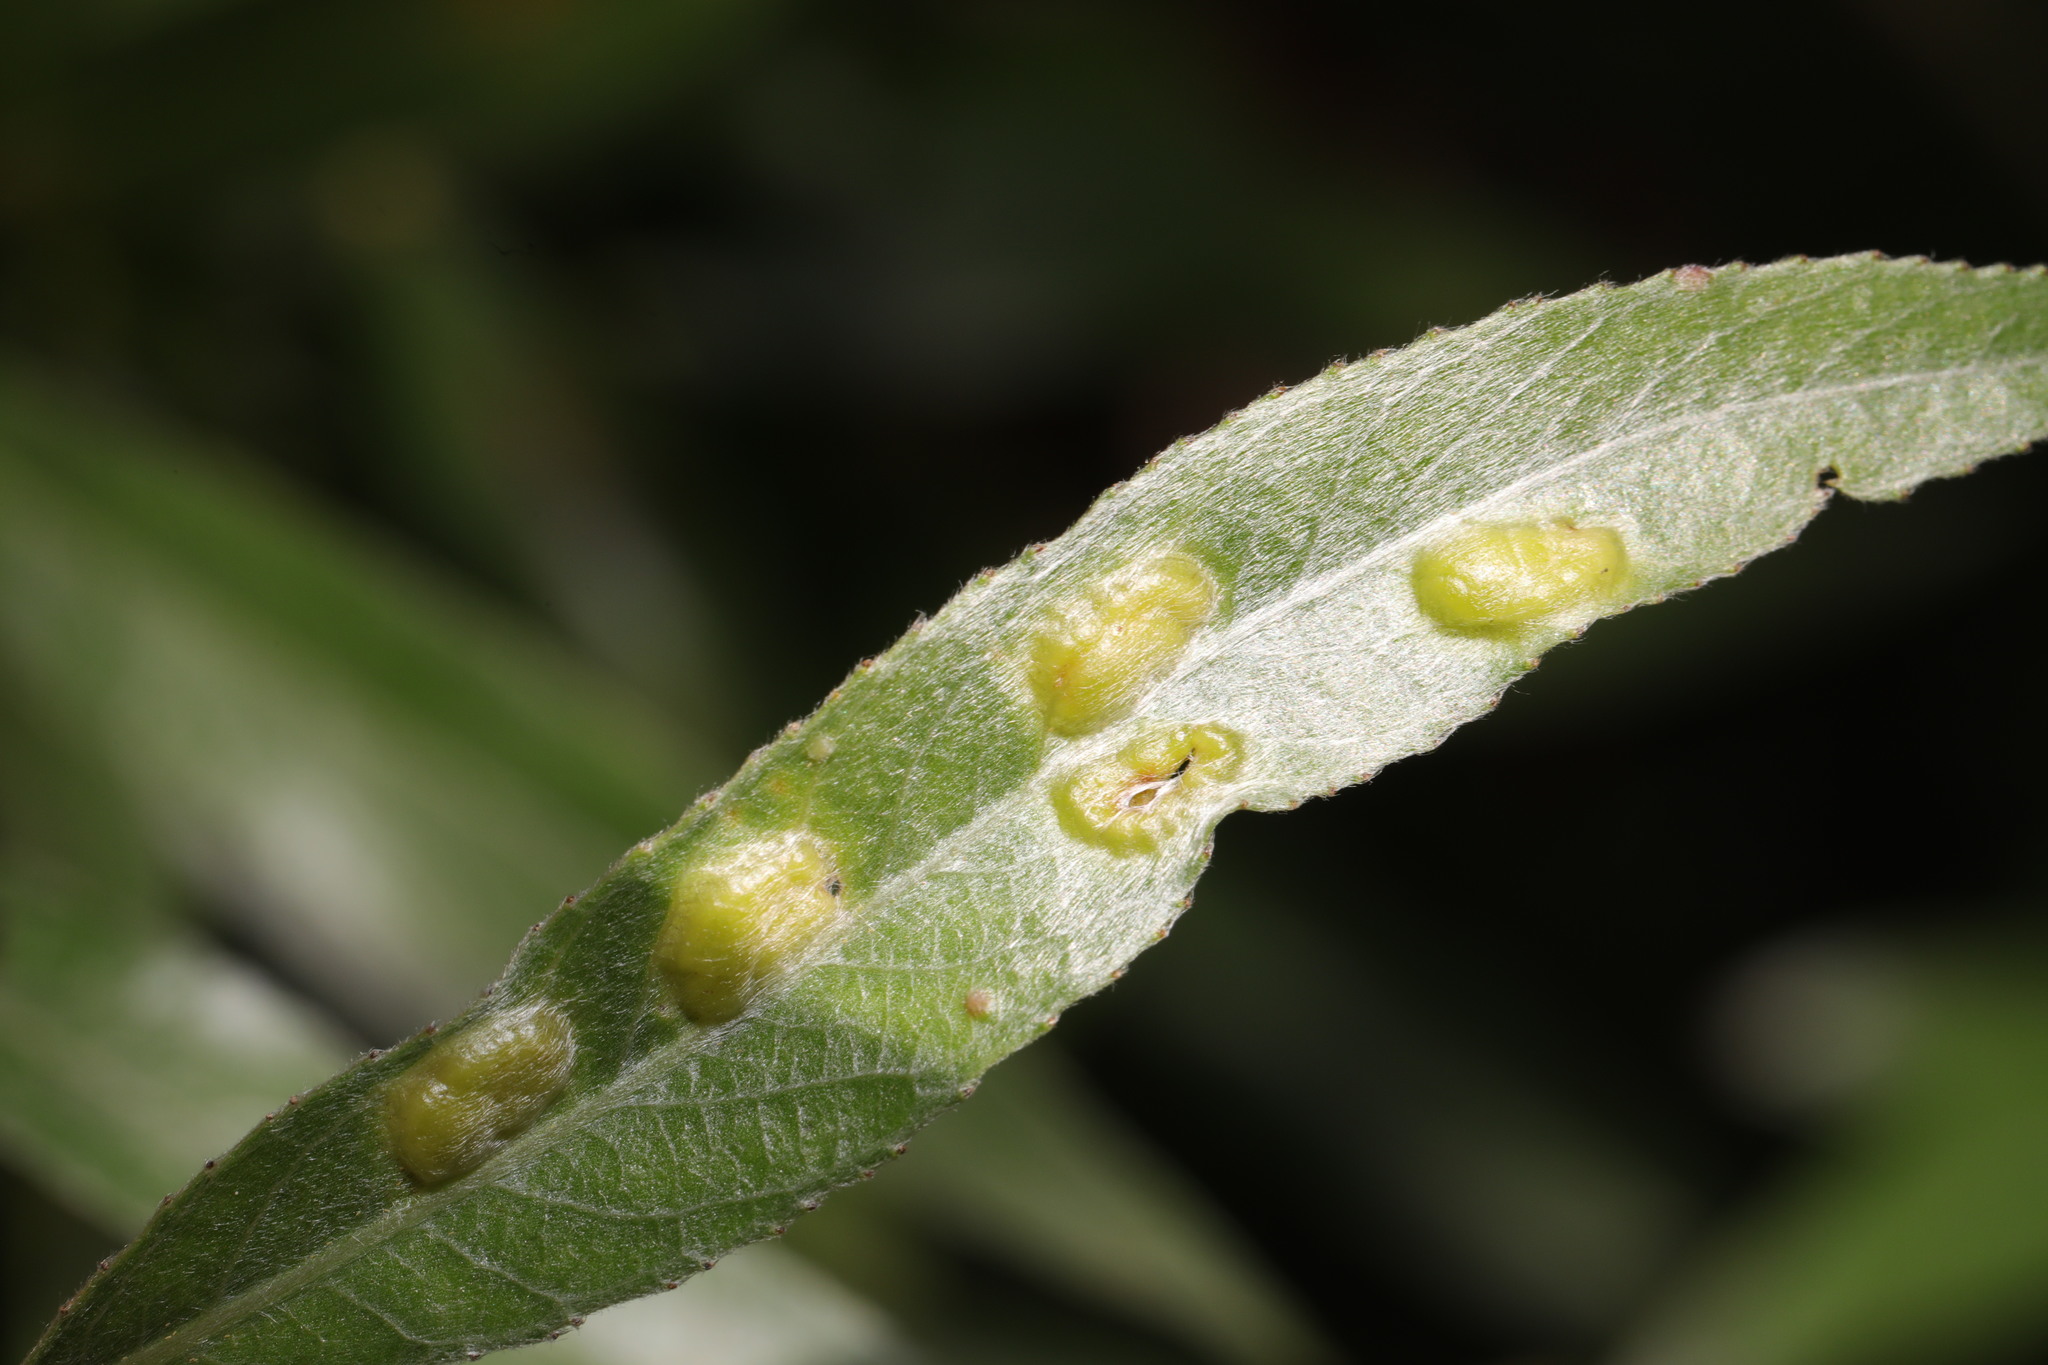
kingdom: Animalia
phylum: Arthropoda
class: Insecta
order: Hymenoptera
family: Tenthredinidae
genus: Pontania
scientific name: Pontania proxima
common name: Common sawfly
